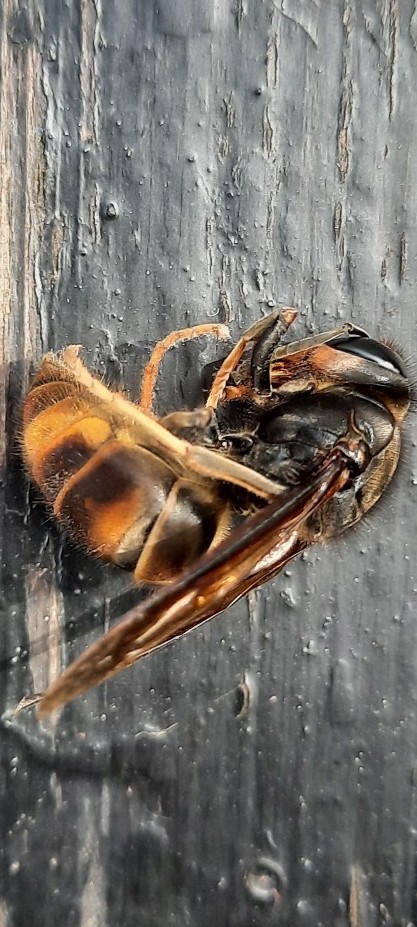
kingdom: Animalia
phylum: Arthropoda
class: Insecta
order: Hymenoptera
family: Vespidae
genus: Vespa
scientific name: Vespa velutina
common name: Asian hornet
